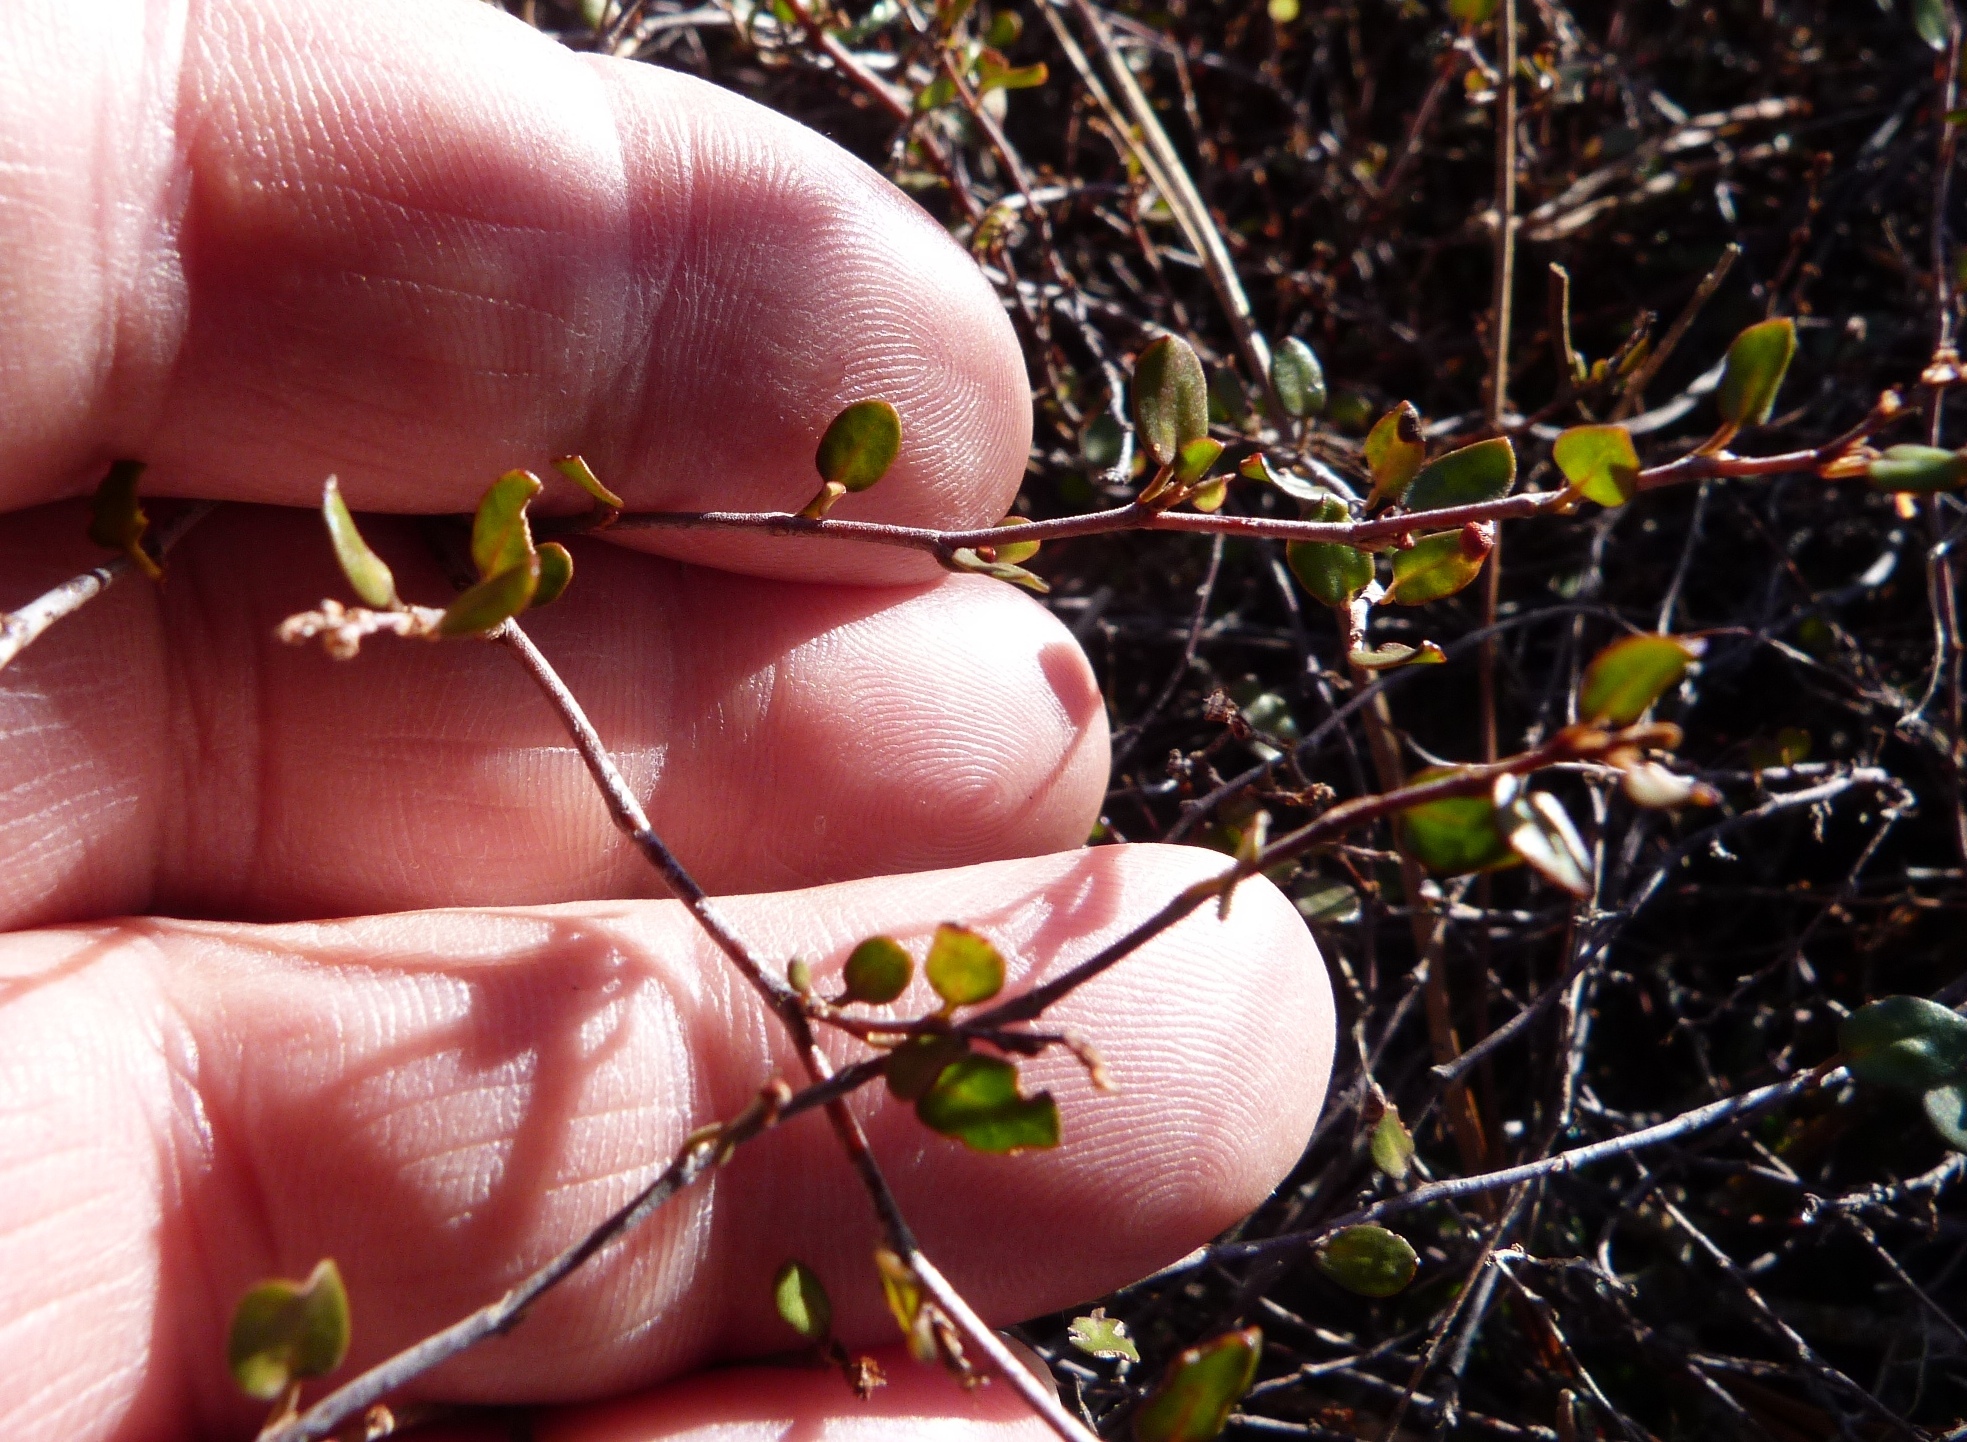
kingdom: Plantae
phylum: Tracheophyta
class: Magnoliopsida
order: Caryophyllales
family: Polygonaceae
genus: Muehlenbeckia
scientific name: Muehlenbeckia axillaris
